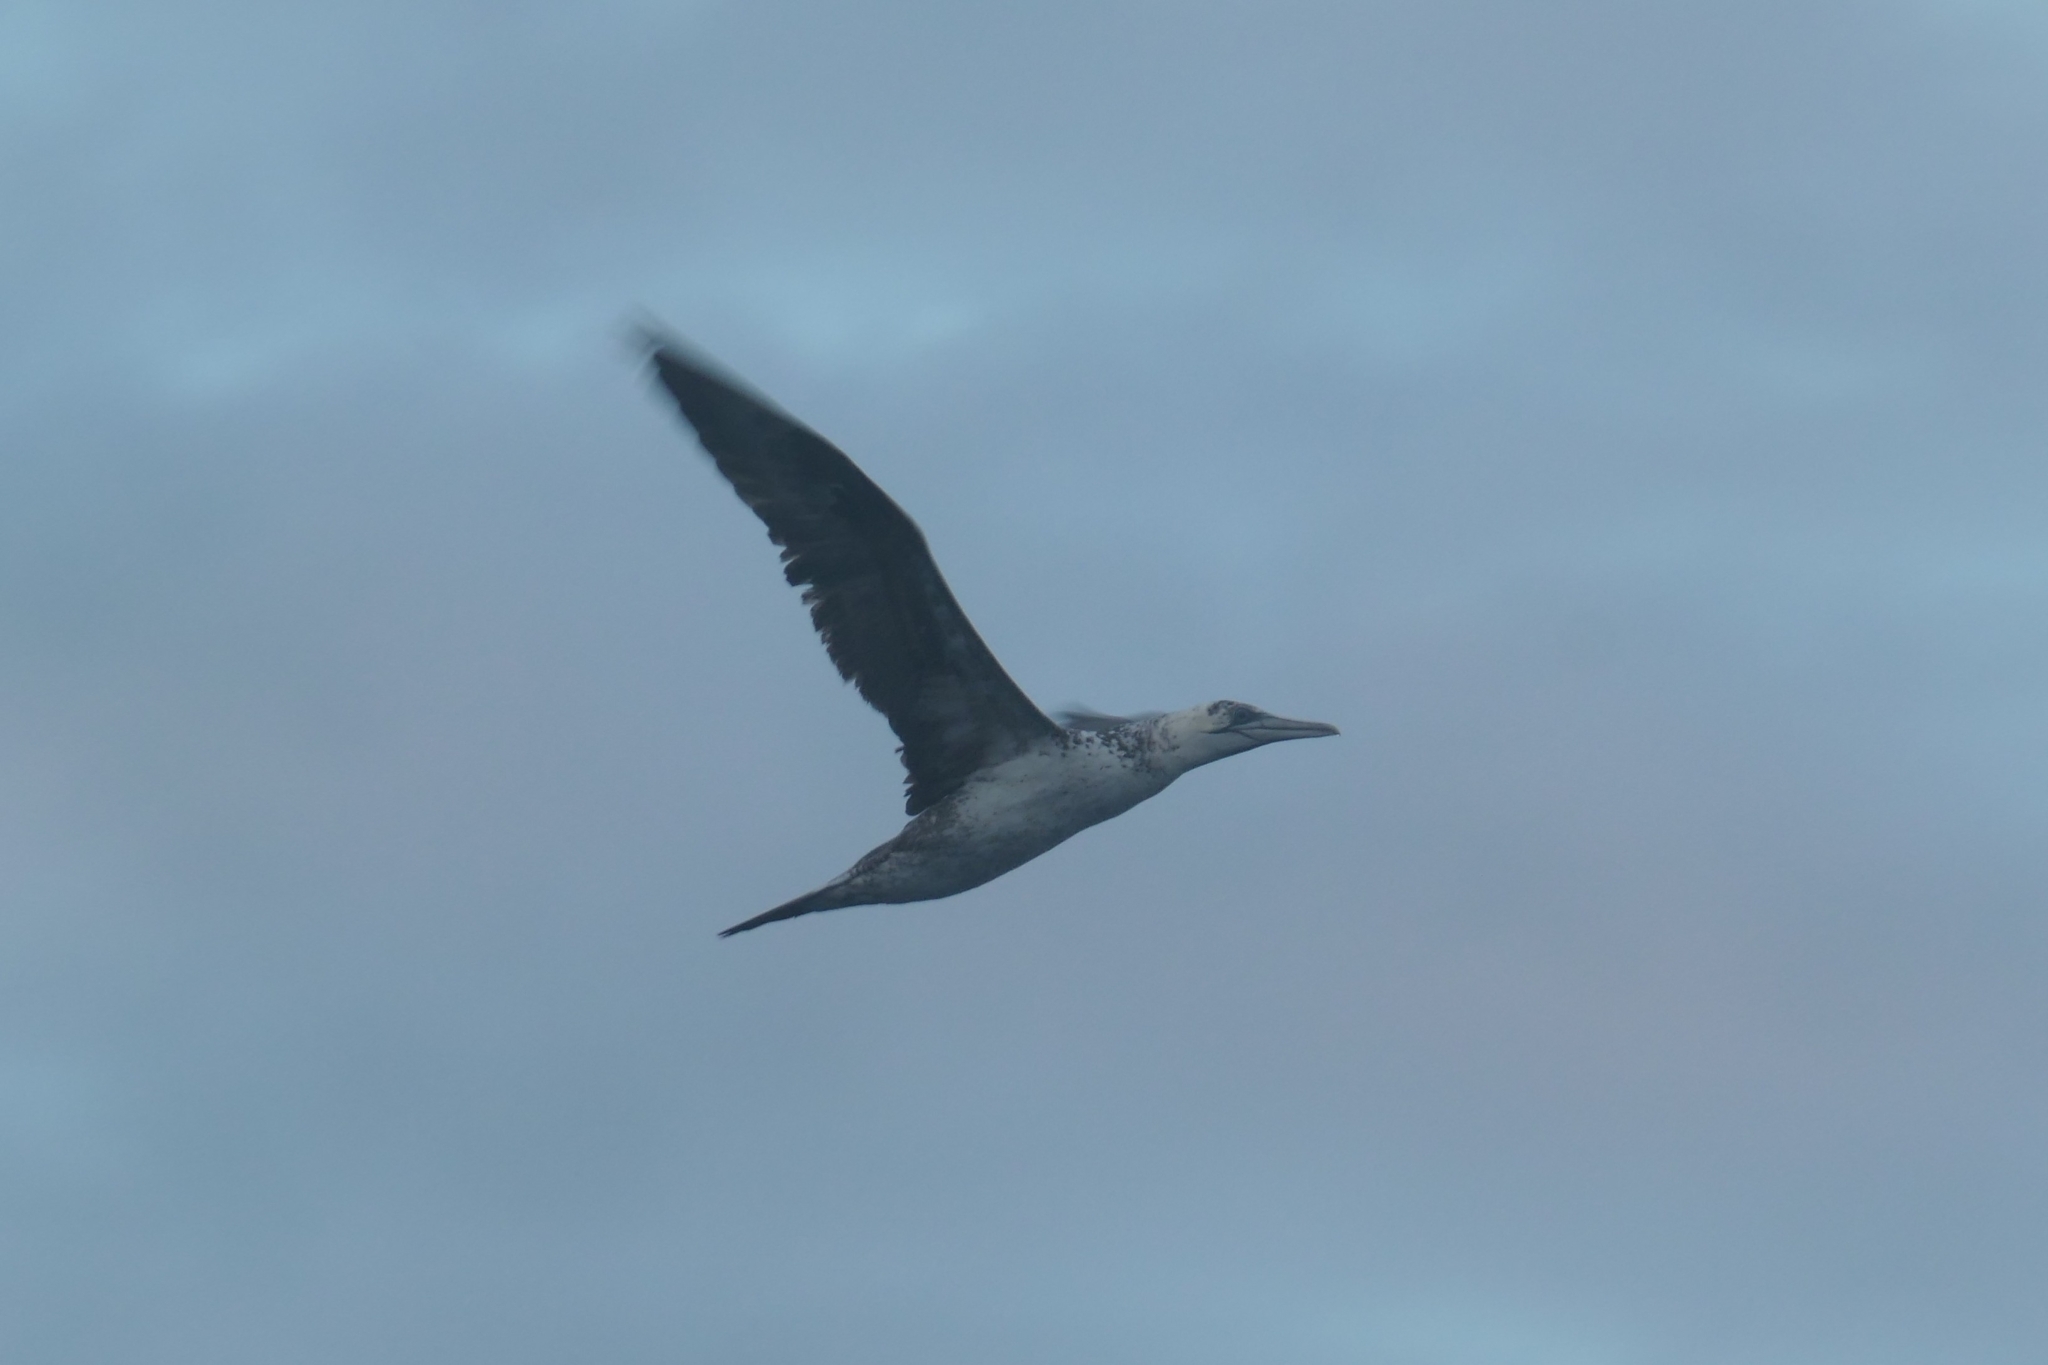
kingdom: Animalia
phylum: Chordata
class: Aves
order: Suliformes
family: Sulidae
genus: Morus
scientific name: Morus bassanus
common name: Northern gannet
